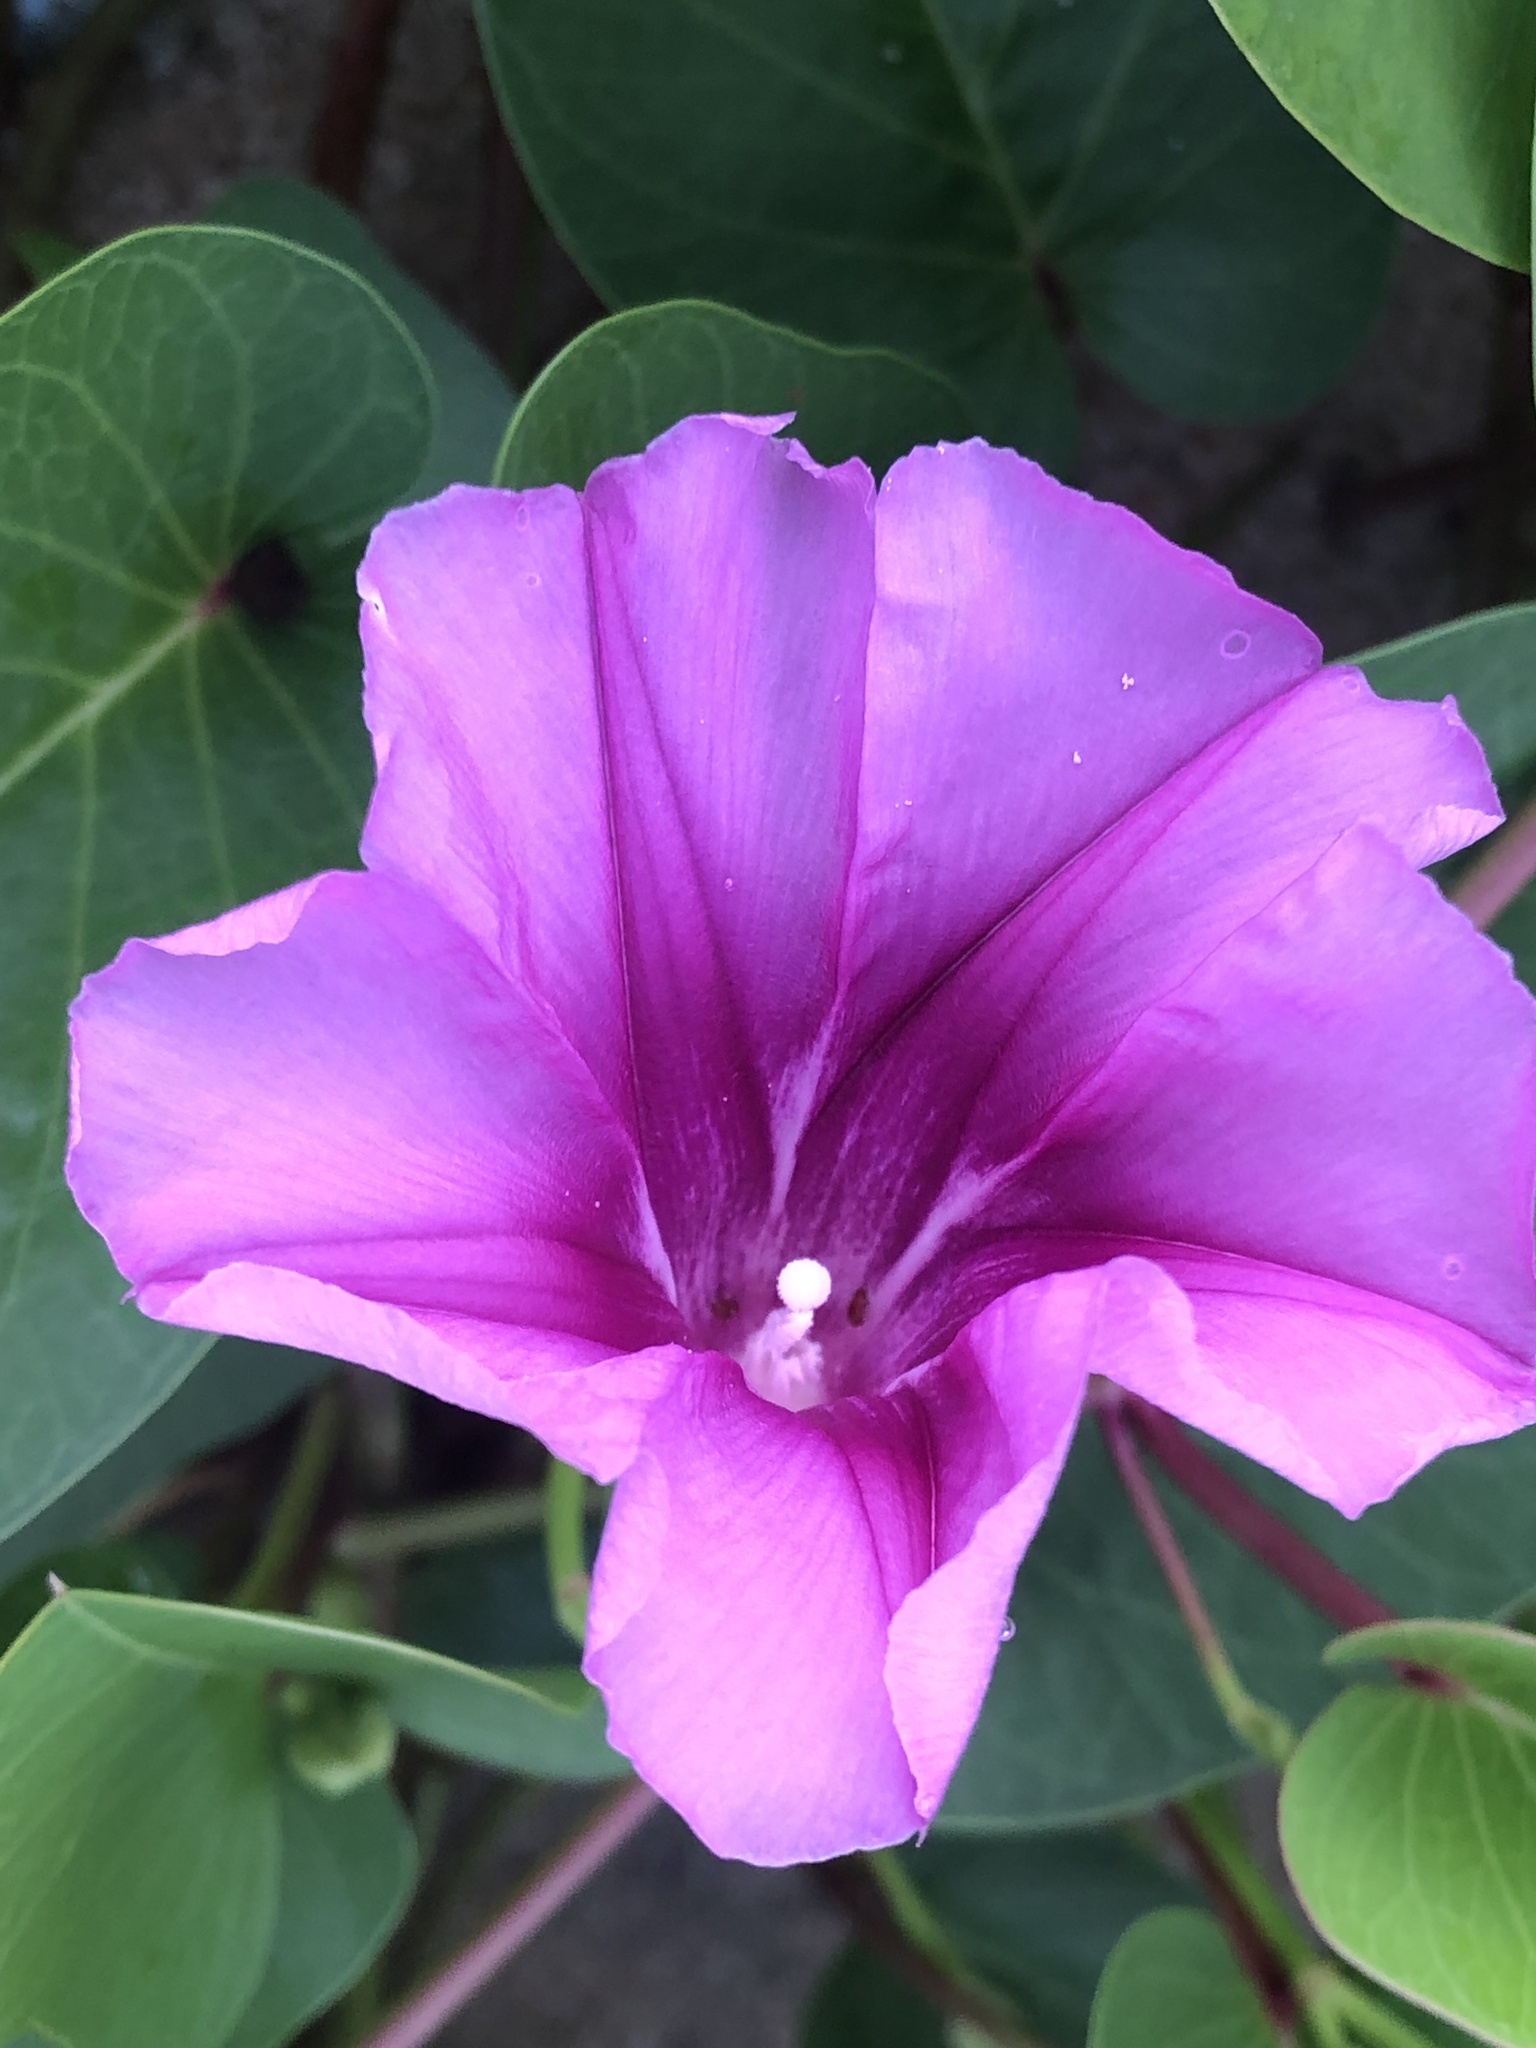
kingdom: Plantae
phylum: Tracheophyta
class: Magnoliopsida
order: Solanales
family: Convolvulaceae
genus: Ipomoea
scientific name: Ipomoea pes-caprae
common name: Beach morning glory
